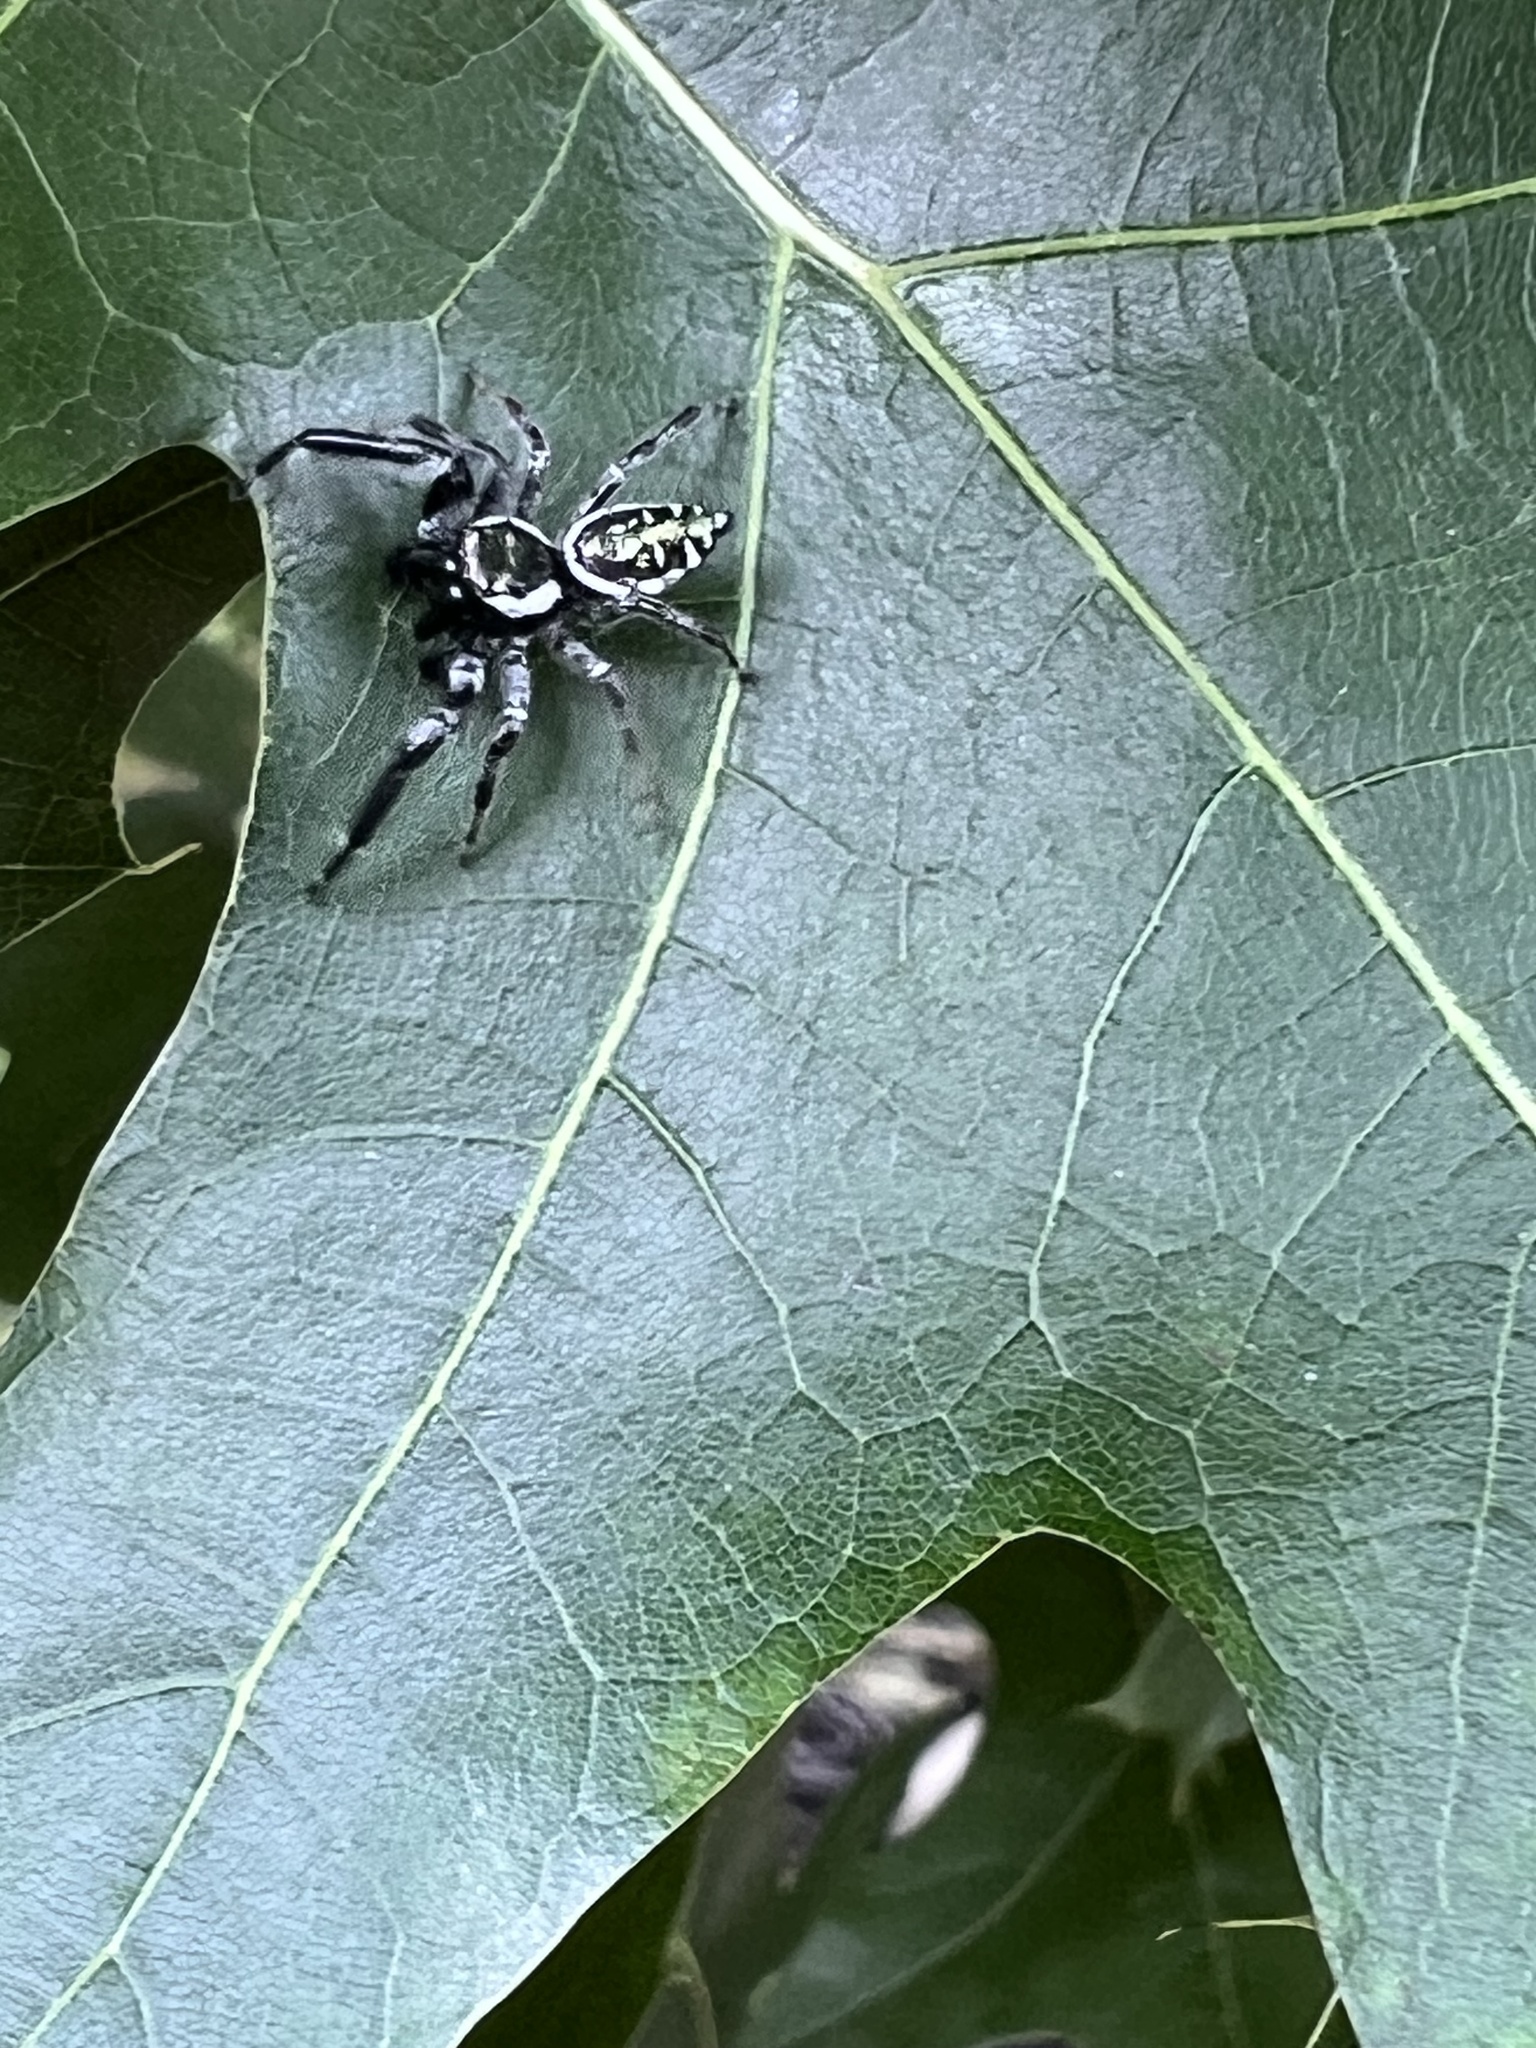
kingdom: Animalia
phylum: Arthropoda
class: Arachnida
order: Araneae
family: Salticidae
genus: Paraphidippus
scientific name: Paraphidippus aurantius
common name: Jumping spiders
